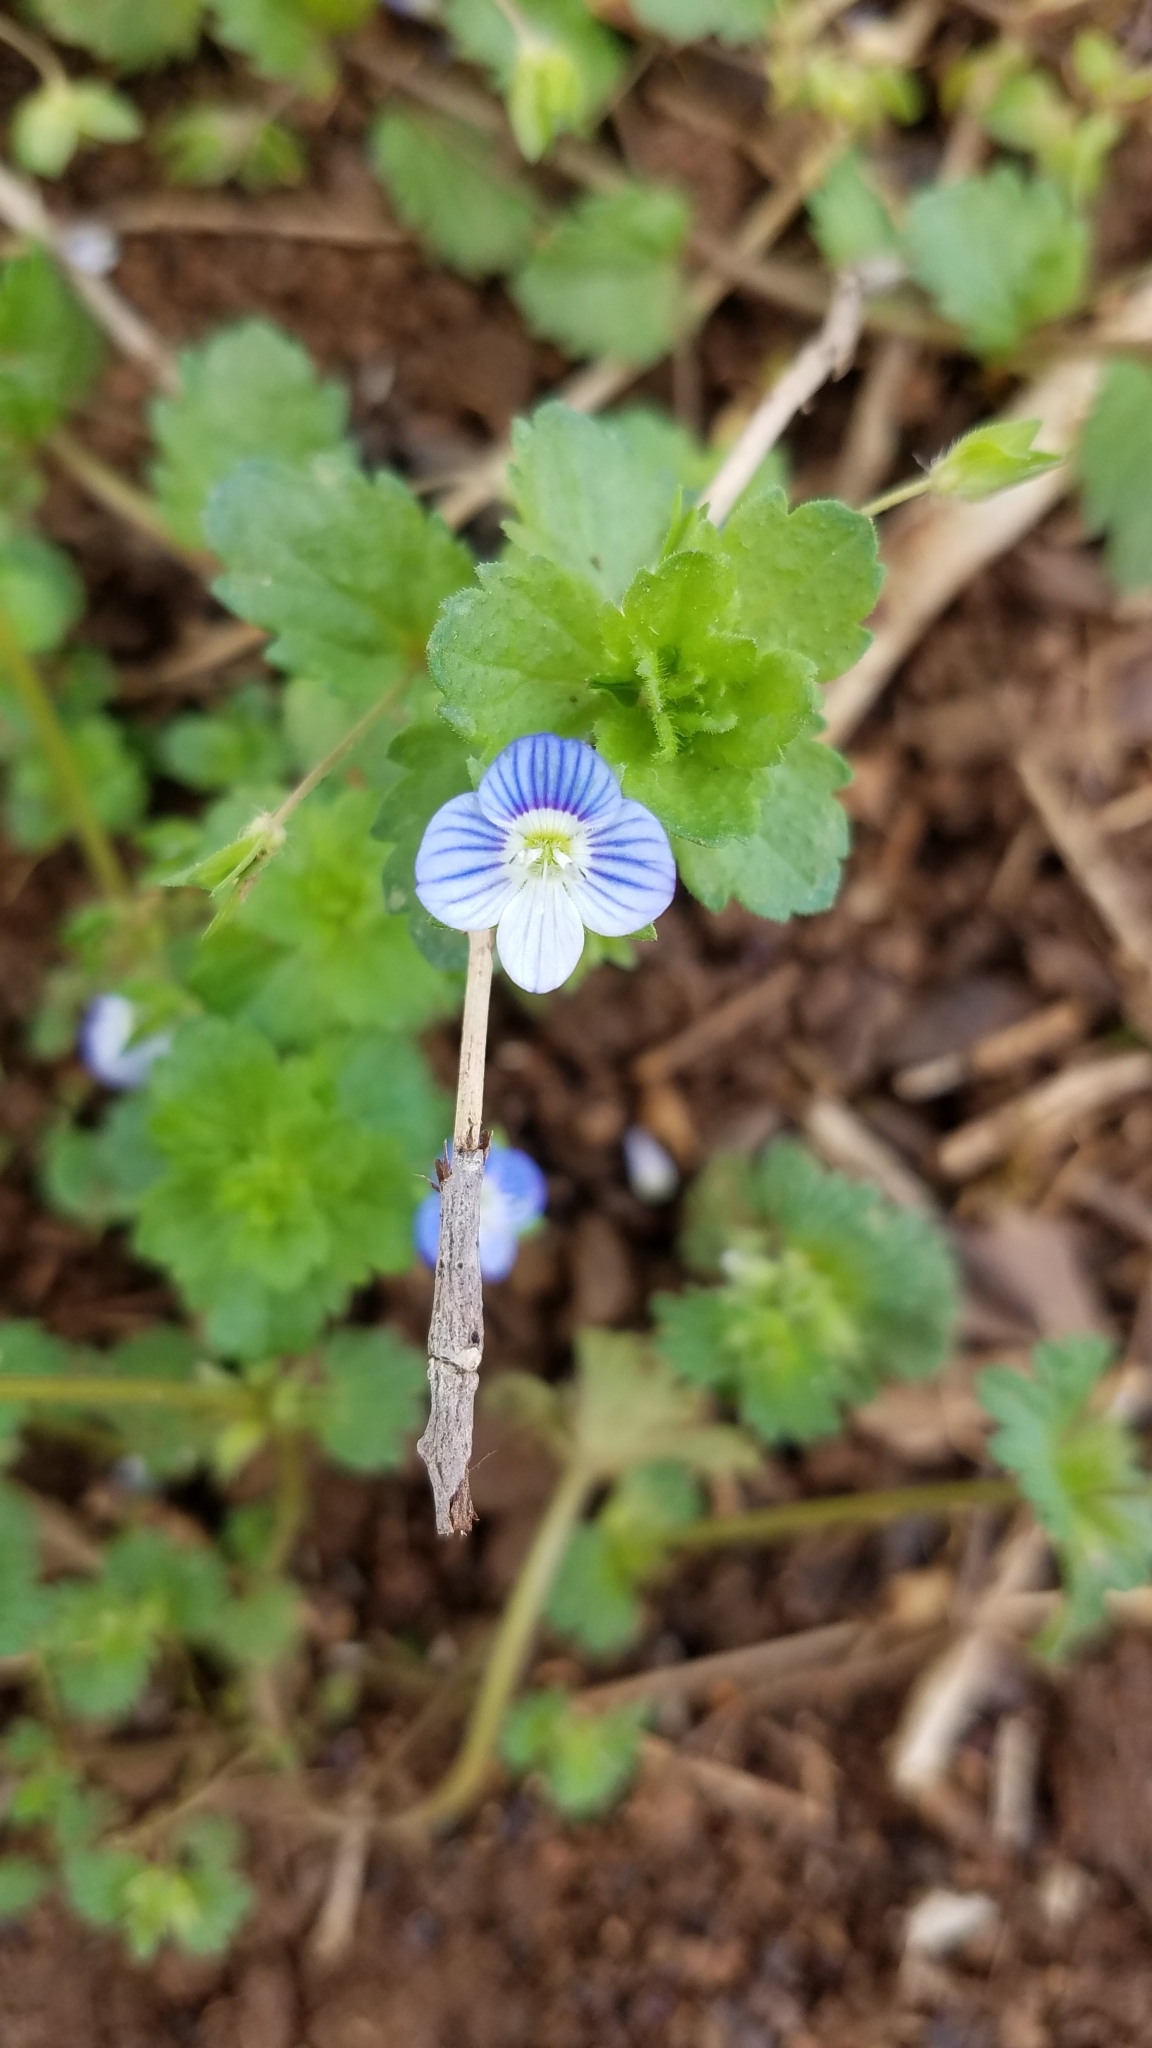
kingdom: Plantae
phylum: Tracheophyta
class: Magnoliopsida
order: Lamiales
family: Plantaginaceae
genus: Veronica
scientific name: Veronica persica
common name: Common field-speedwell
